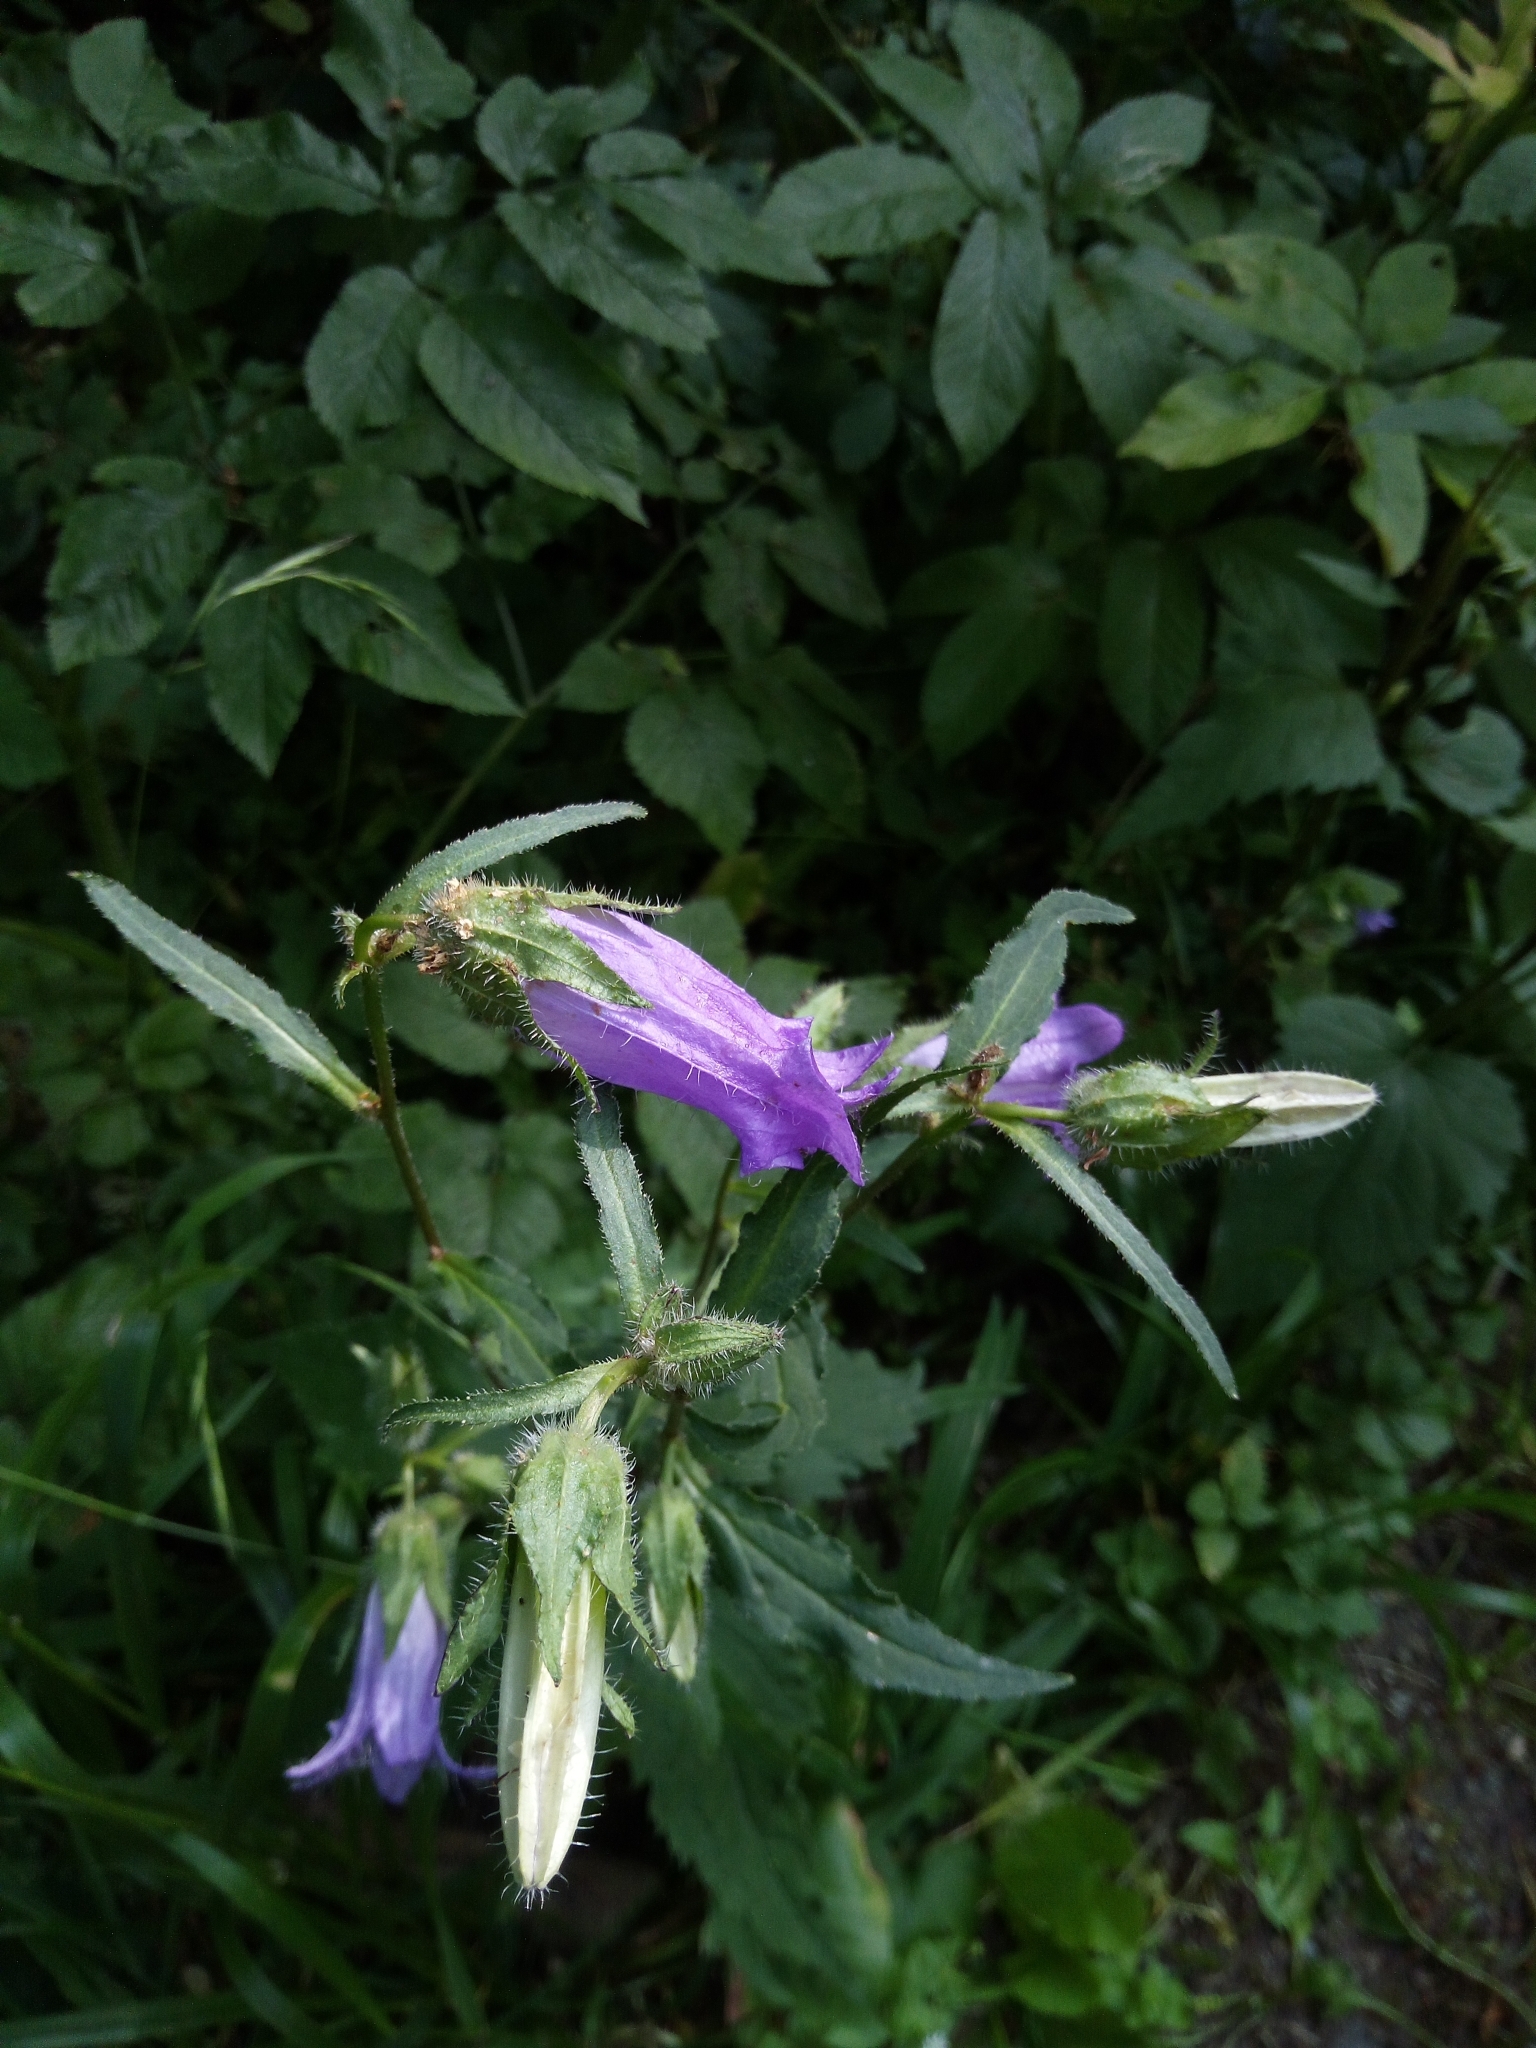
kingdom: Plantae
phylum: Tracheophyta
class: Magnoliopsida
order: Asterales
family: Campanulaceae
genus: Campanula
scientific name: Campanula trachelium
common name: Nettle-leaved bellflower
